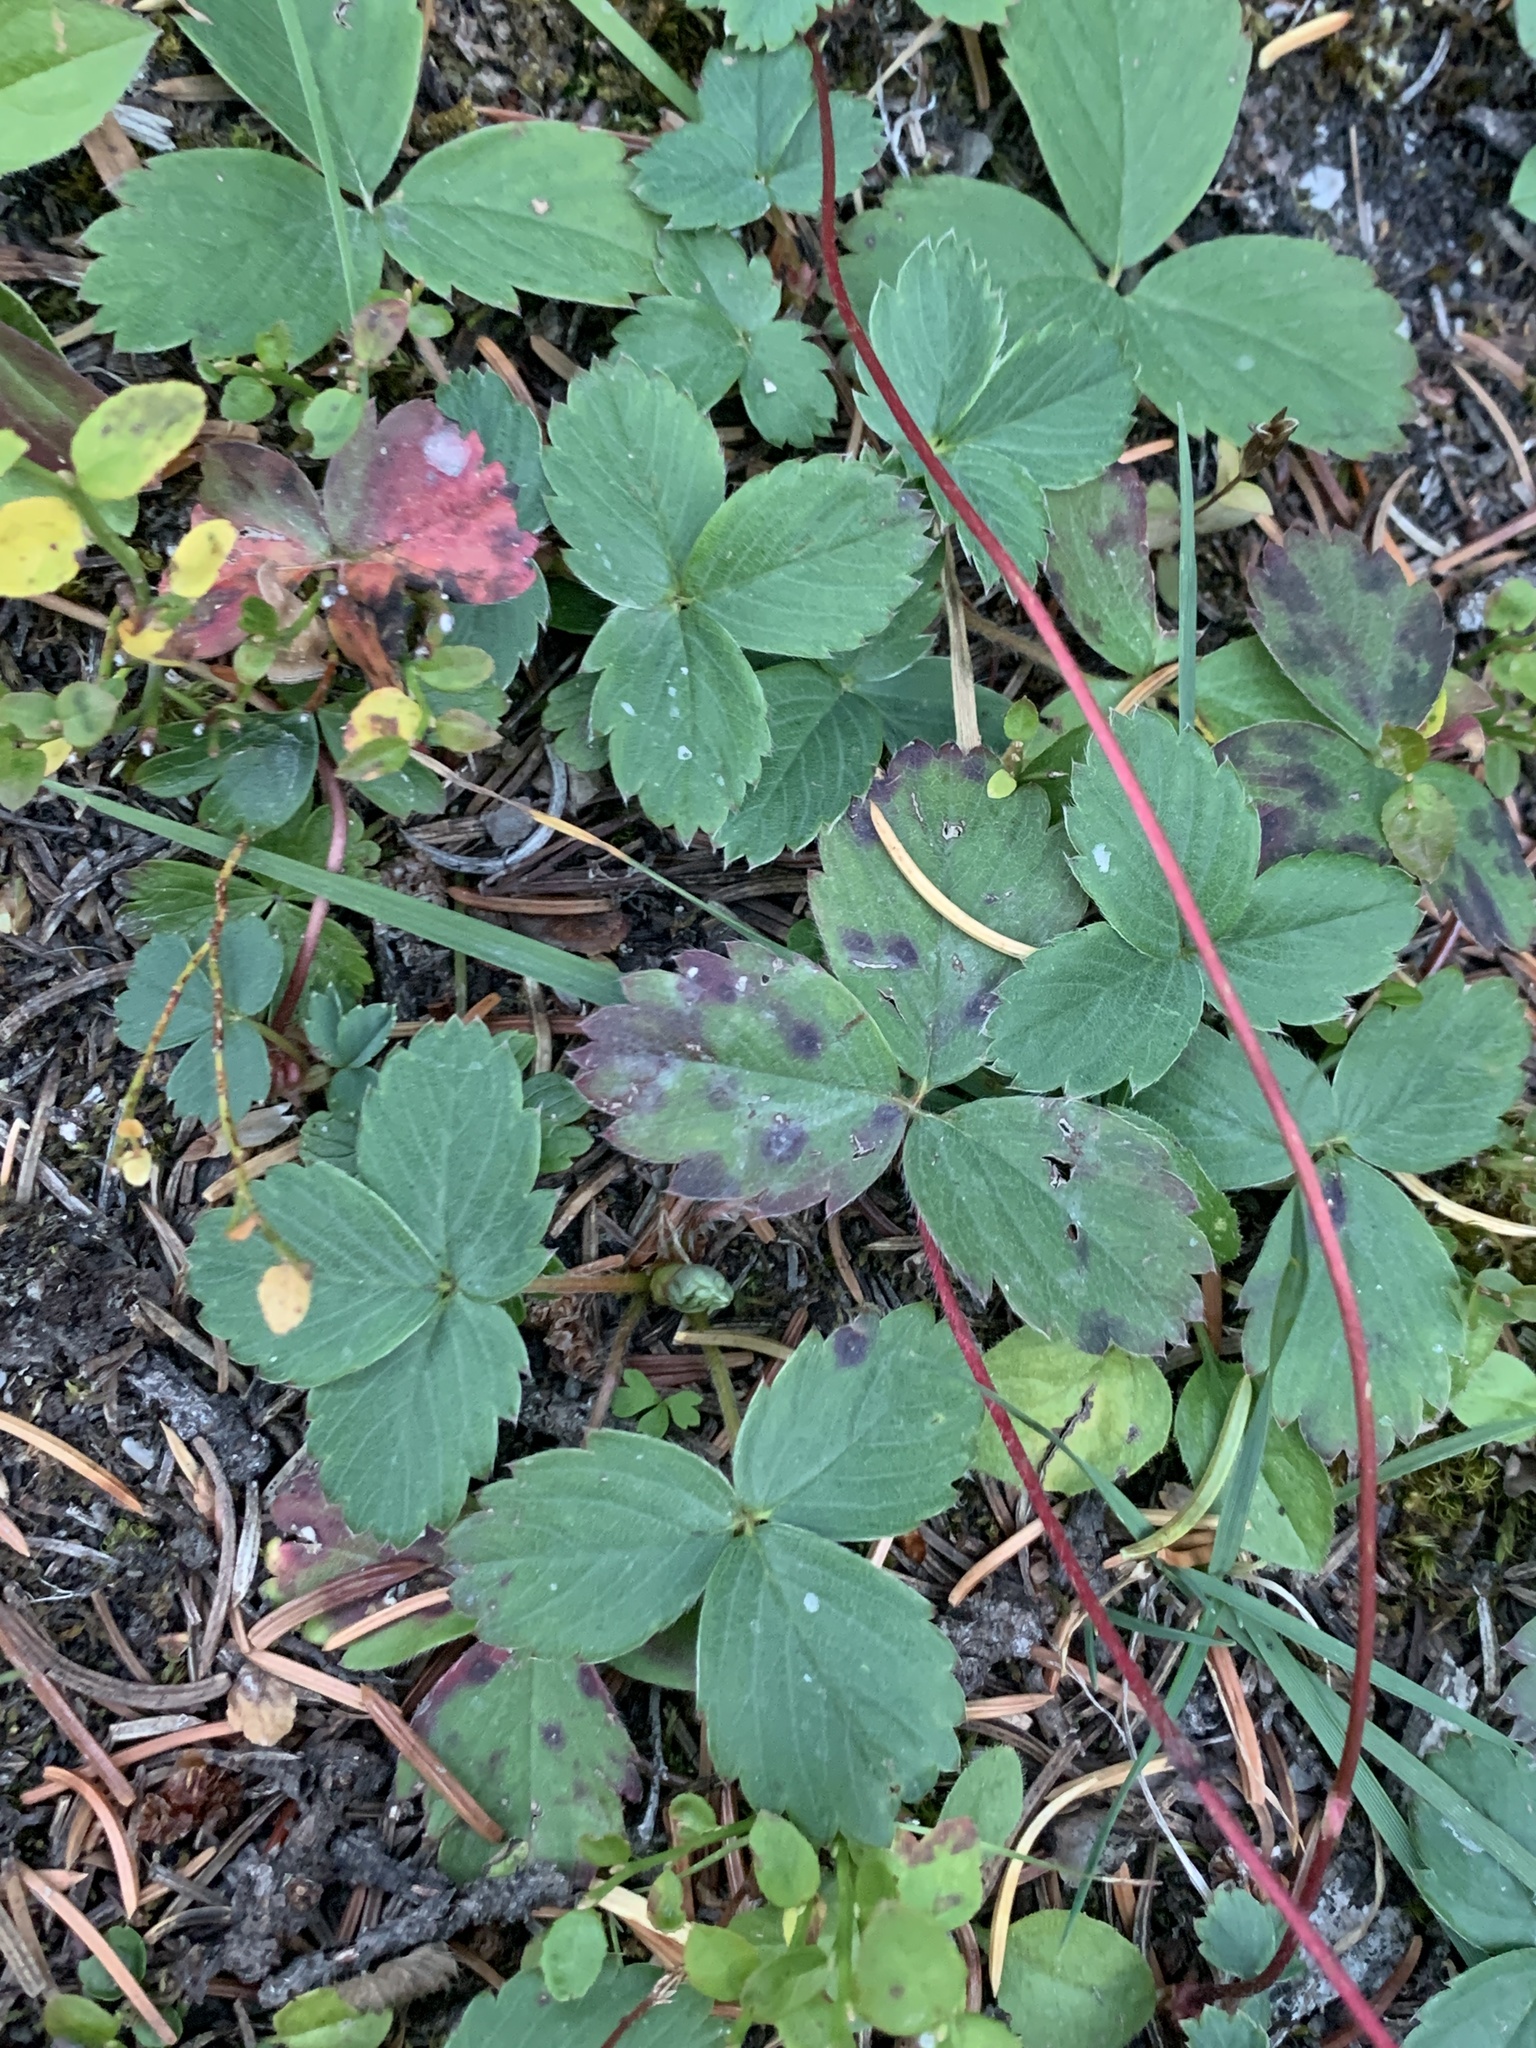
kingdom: Plantae
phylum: Tracheophyta
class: Magnoliopsida
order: Rosales
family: Rosaceae
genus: Fragaria
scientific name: Fragaria virginiana
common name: Thickleaved wild strawberry
